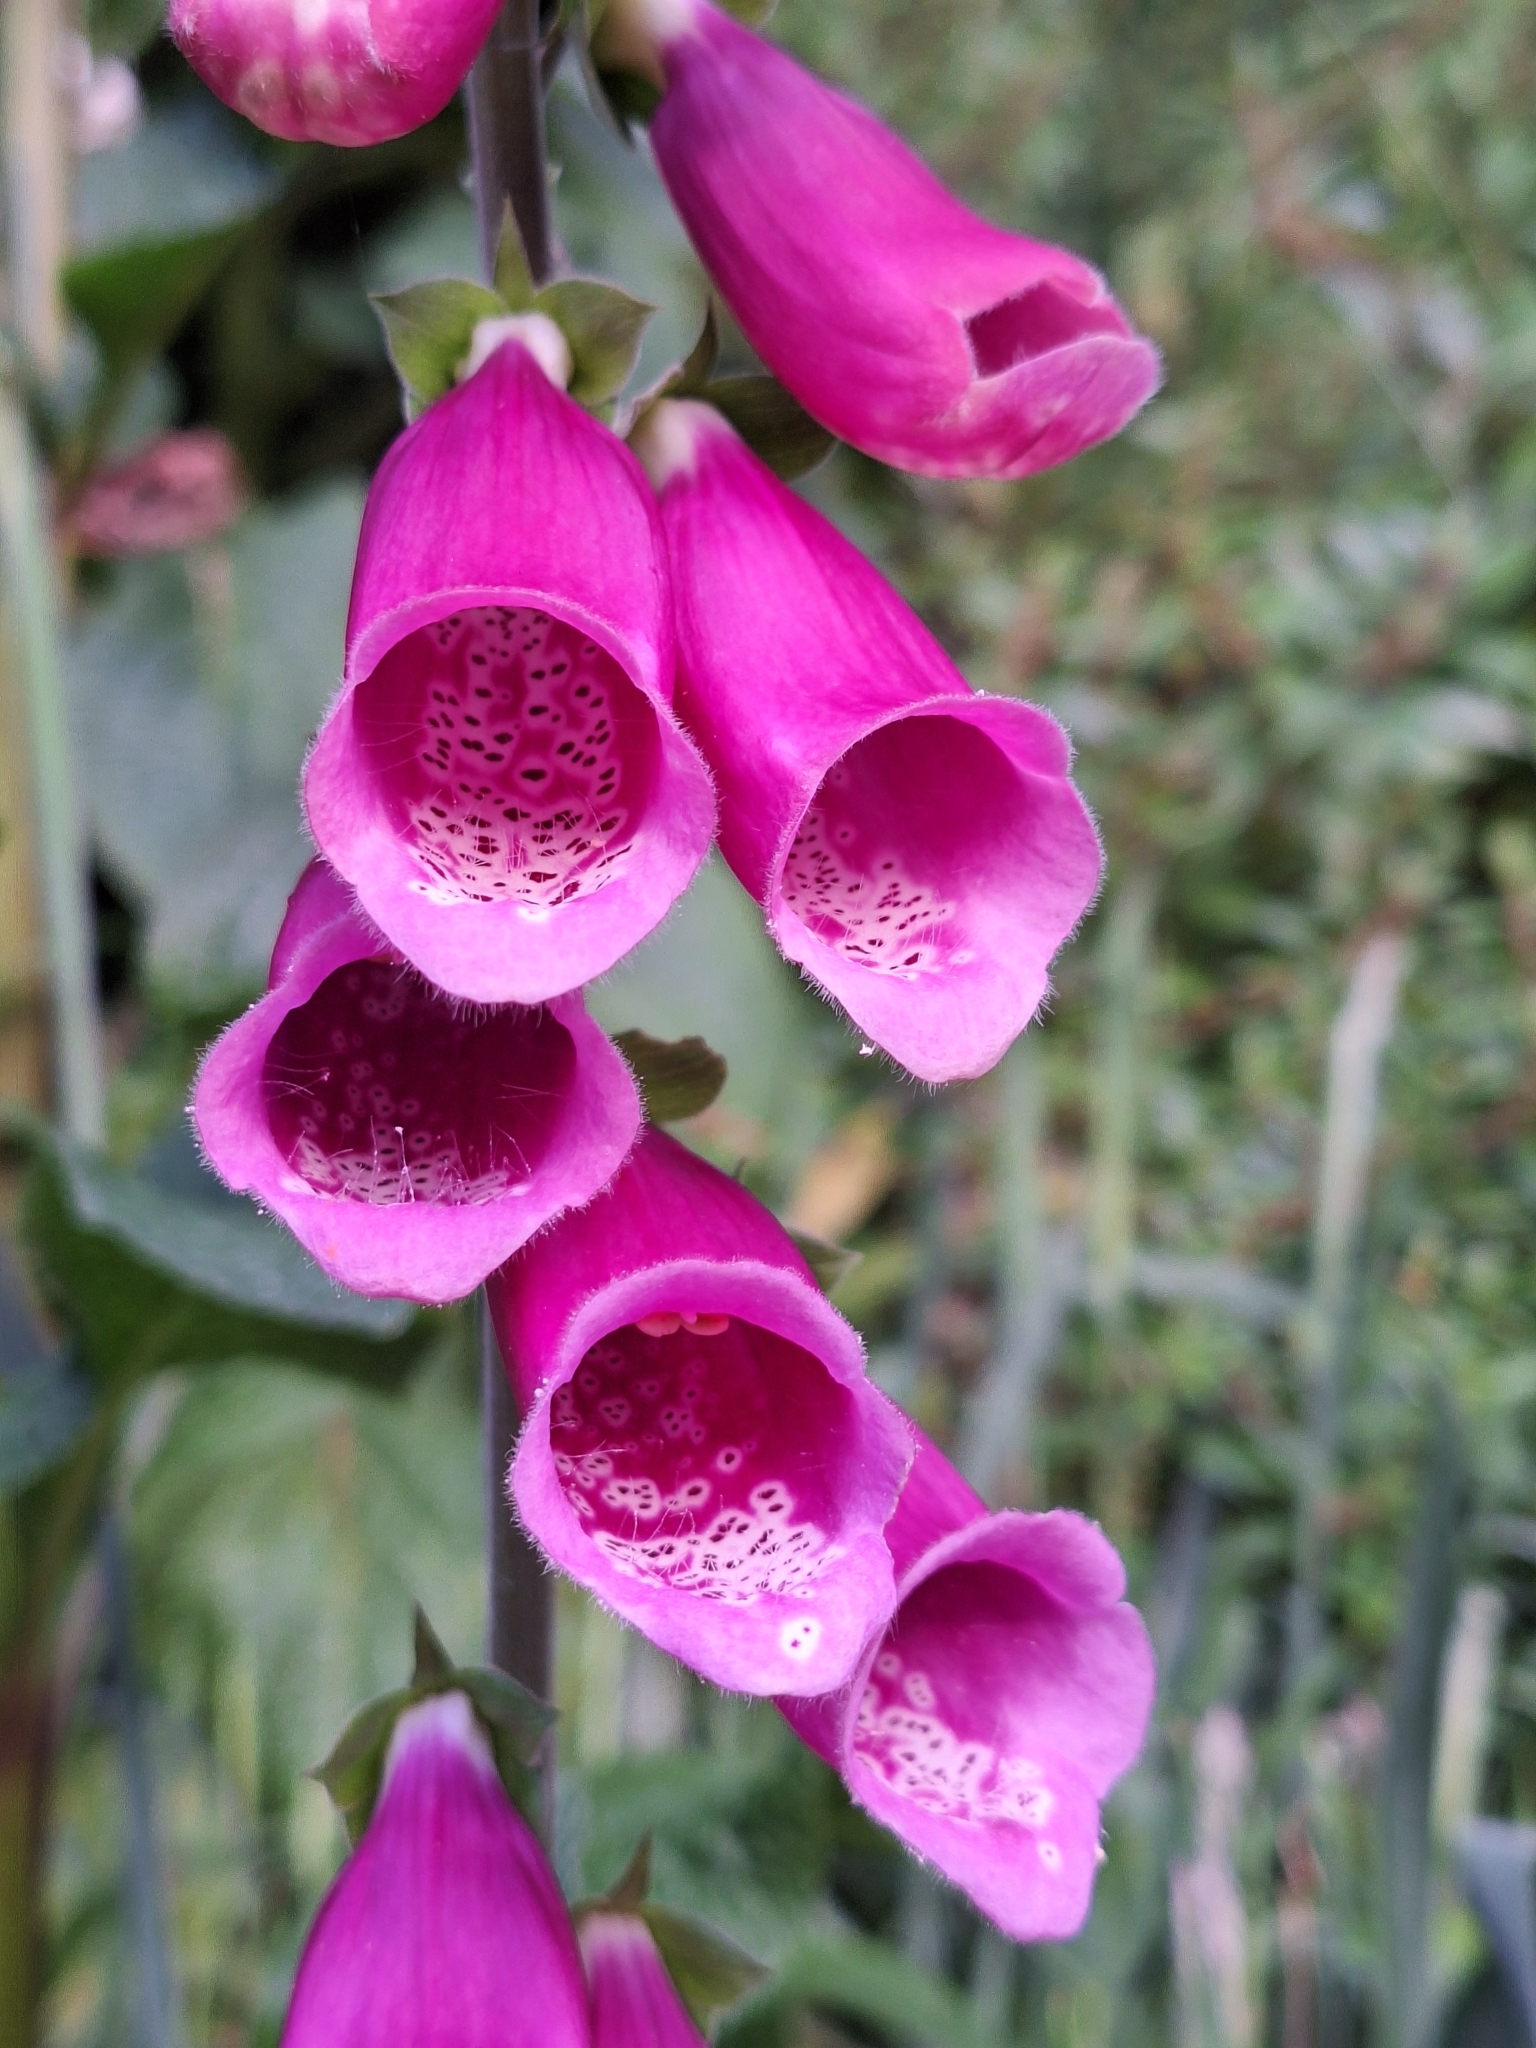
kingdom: Plantae
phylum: Tracheophyta
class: Magnoliopsida
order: Lamiales
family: Plantaginaceae
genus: Digitalis
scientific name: Digitalis purpurea
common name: Foxglove
